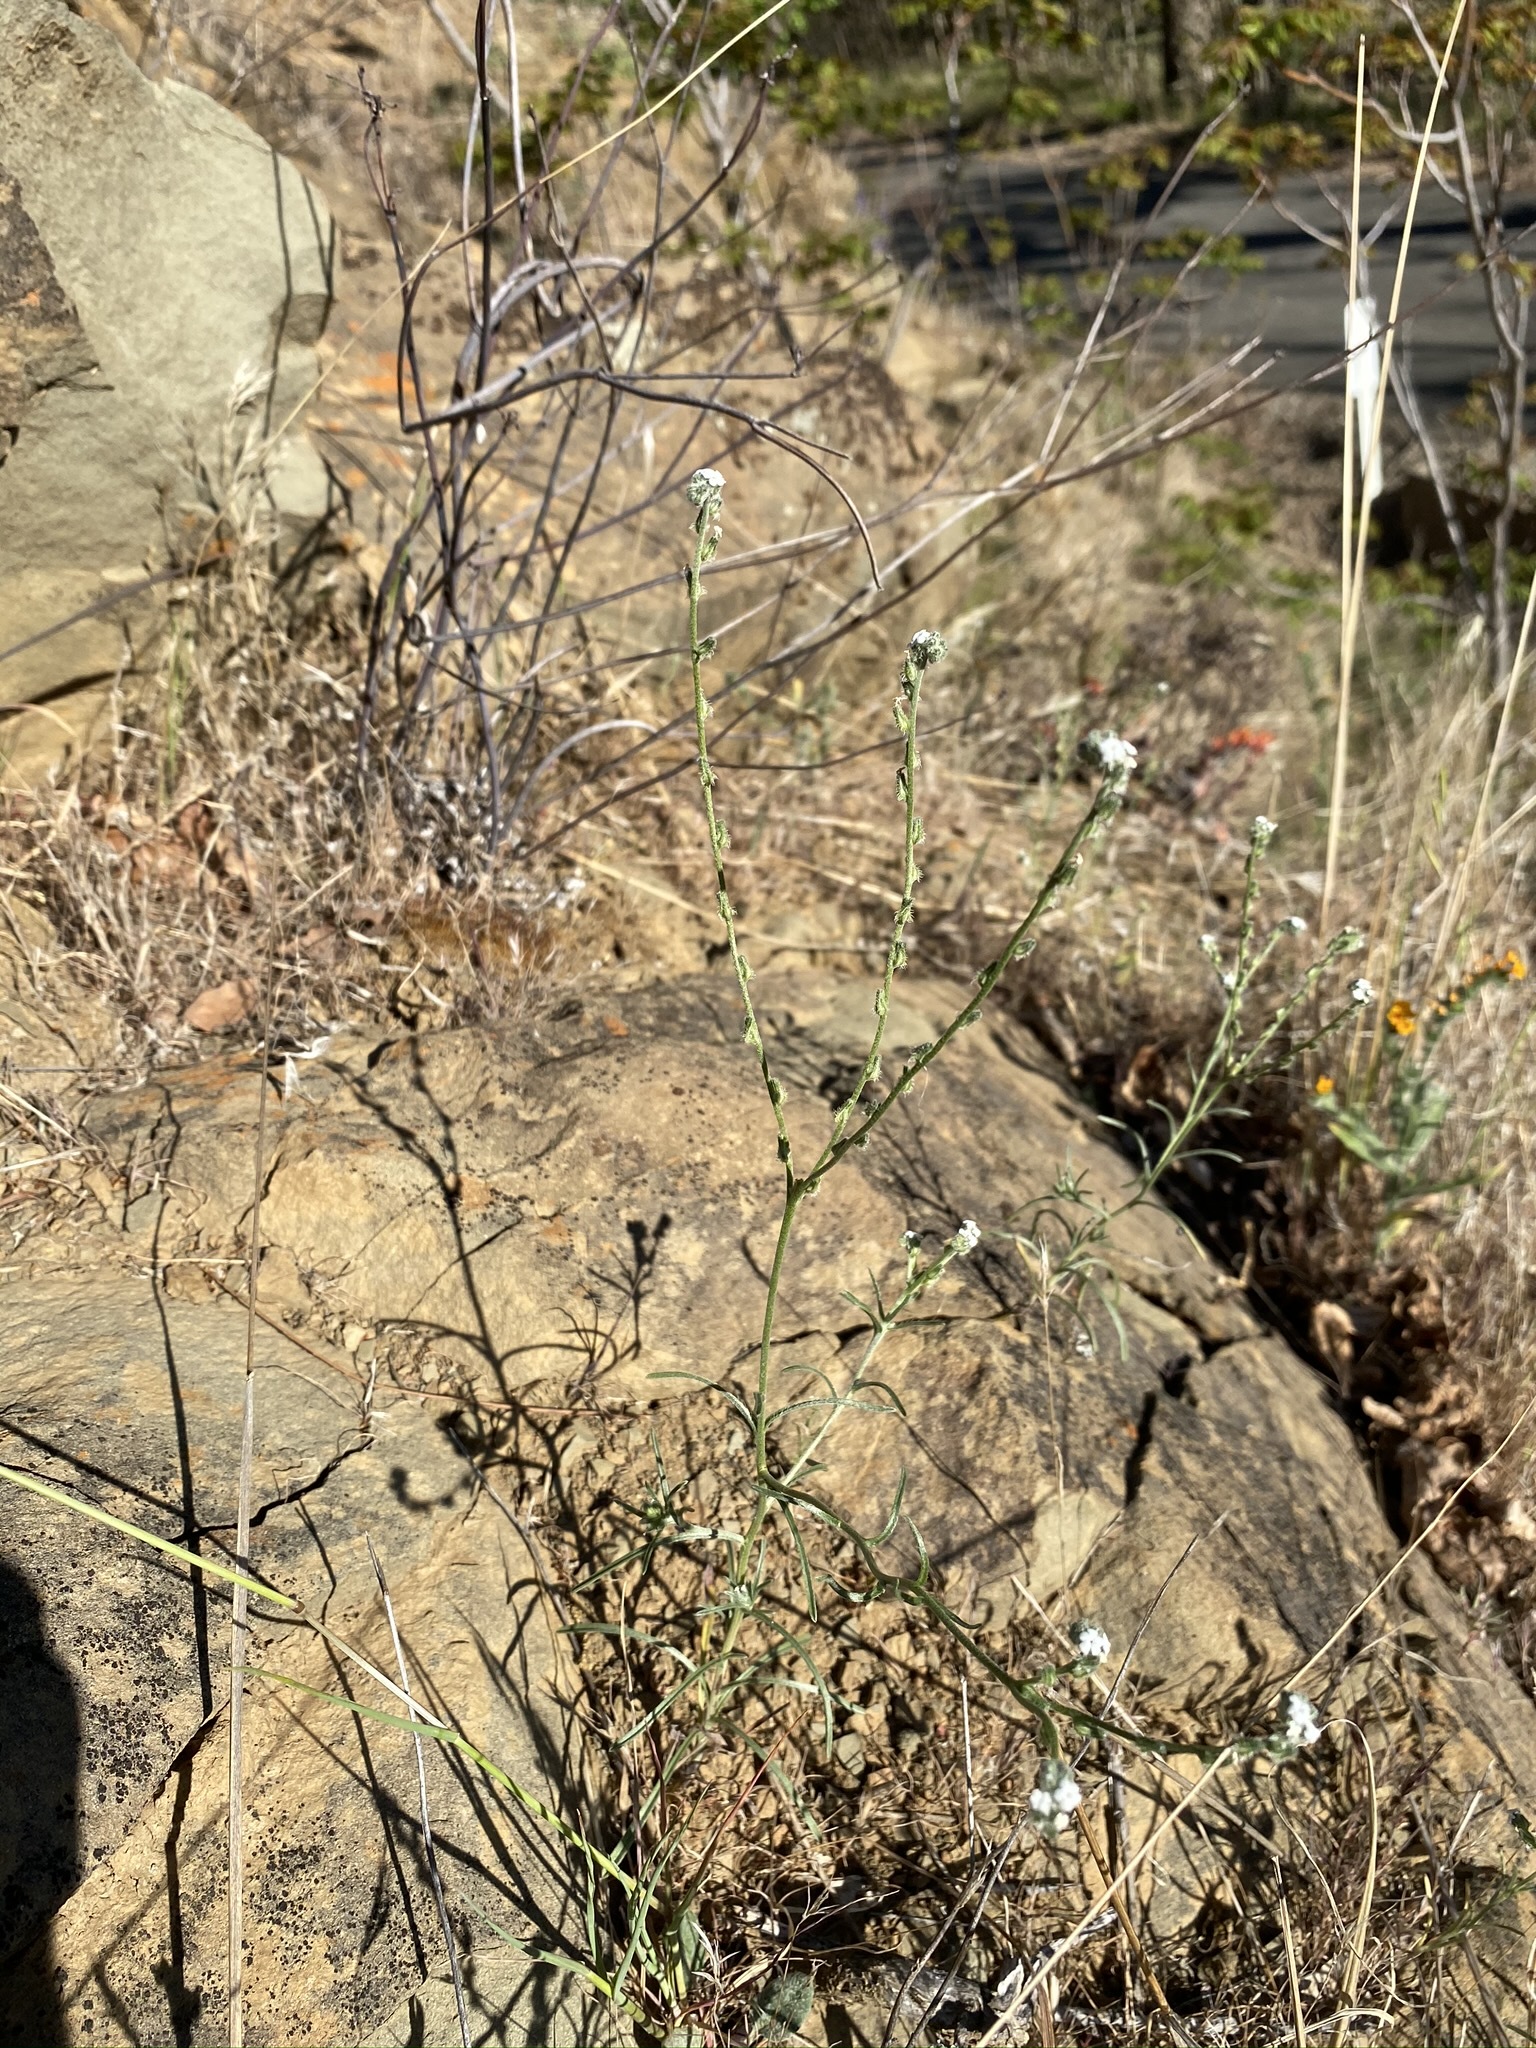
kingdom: Plantae
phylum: Tracheophyta
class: Magnoliopsida
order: Boraginales
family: Boraginaceae
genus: Cryptantha
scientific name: Cryptantha flaccida
